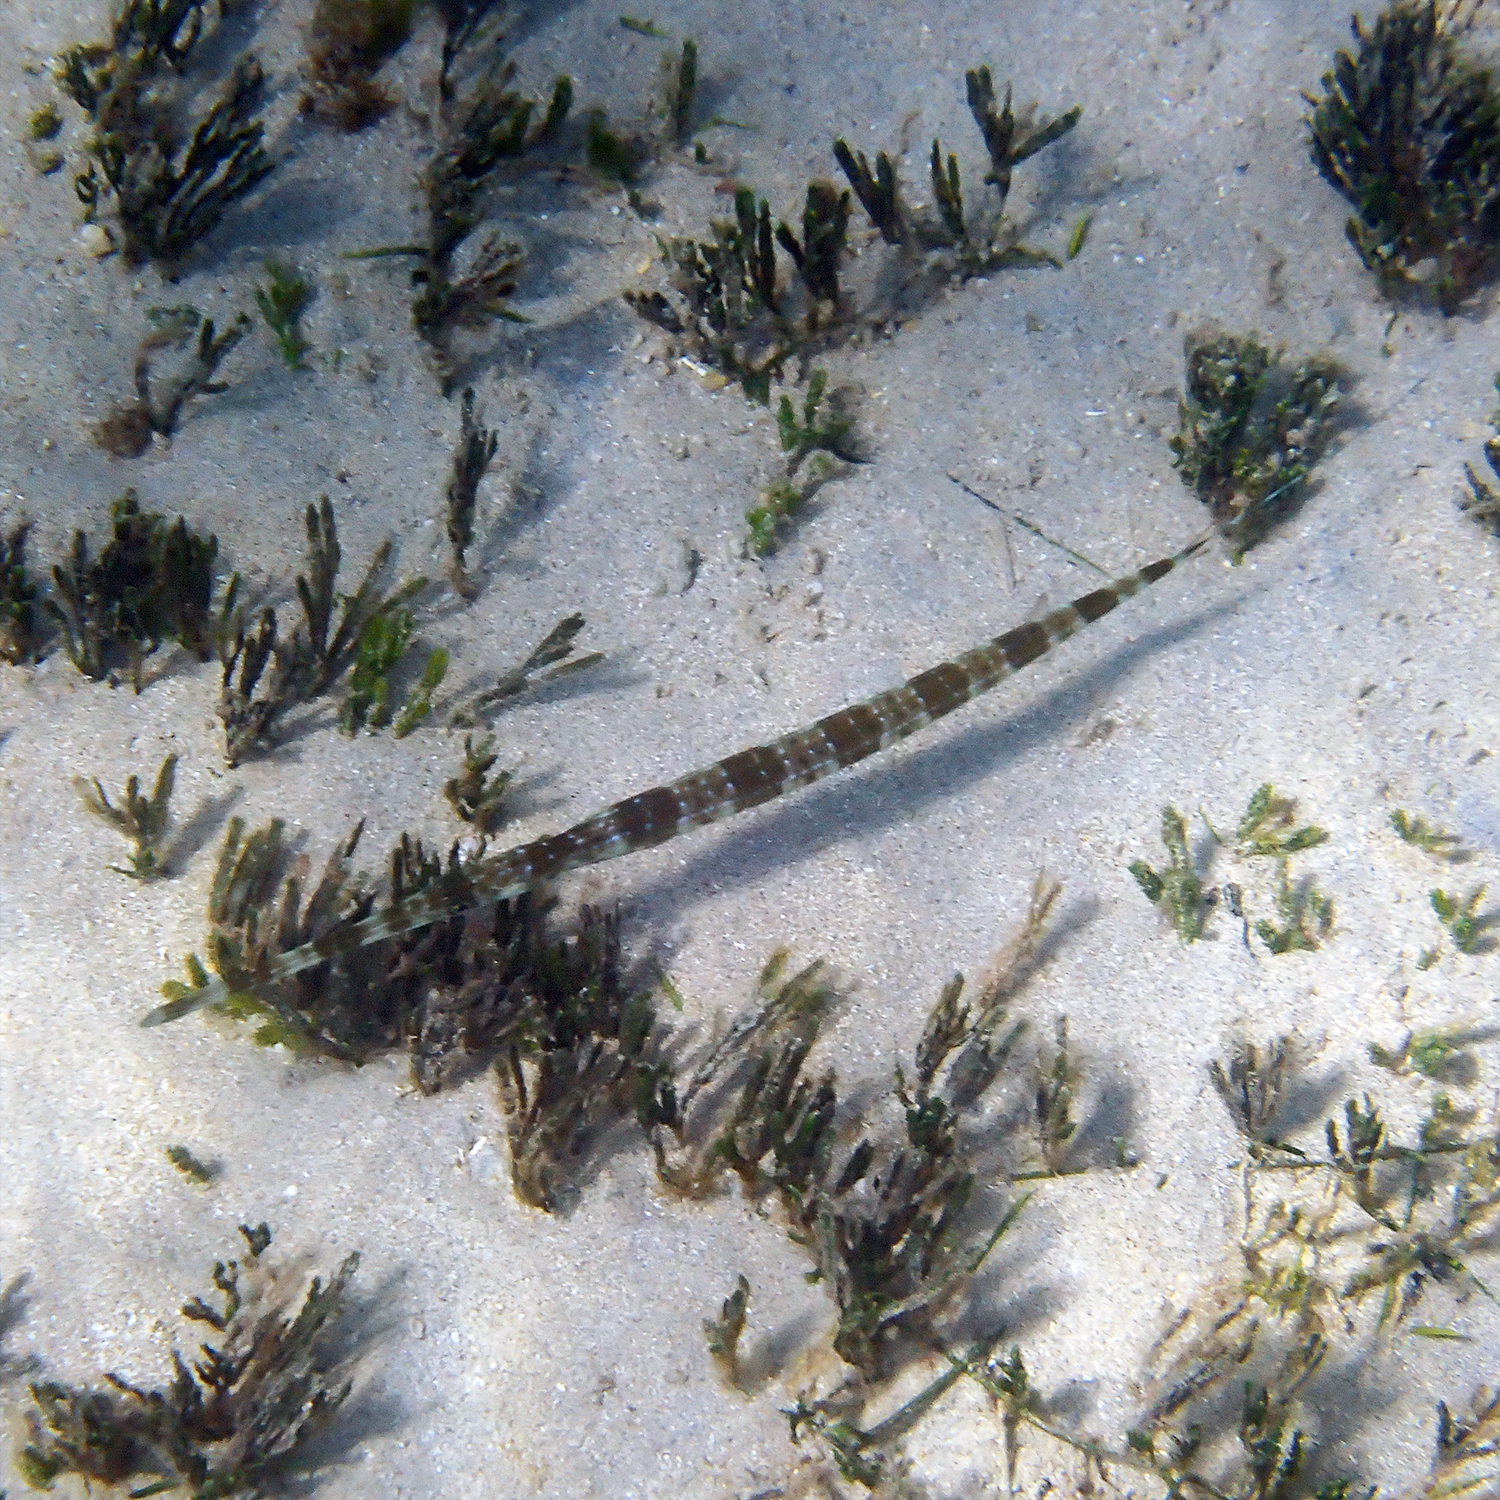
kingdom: Animalia
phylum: Chordata
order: Syngnathiformes
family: Fistulariidae
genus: Fistularia
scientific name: Fistularia commersonii
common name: Bluespotted cornetfish
